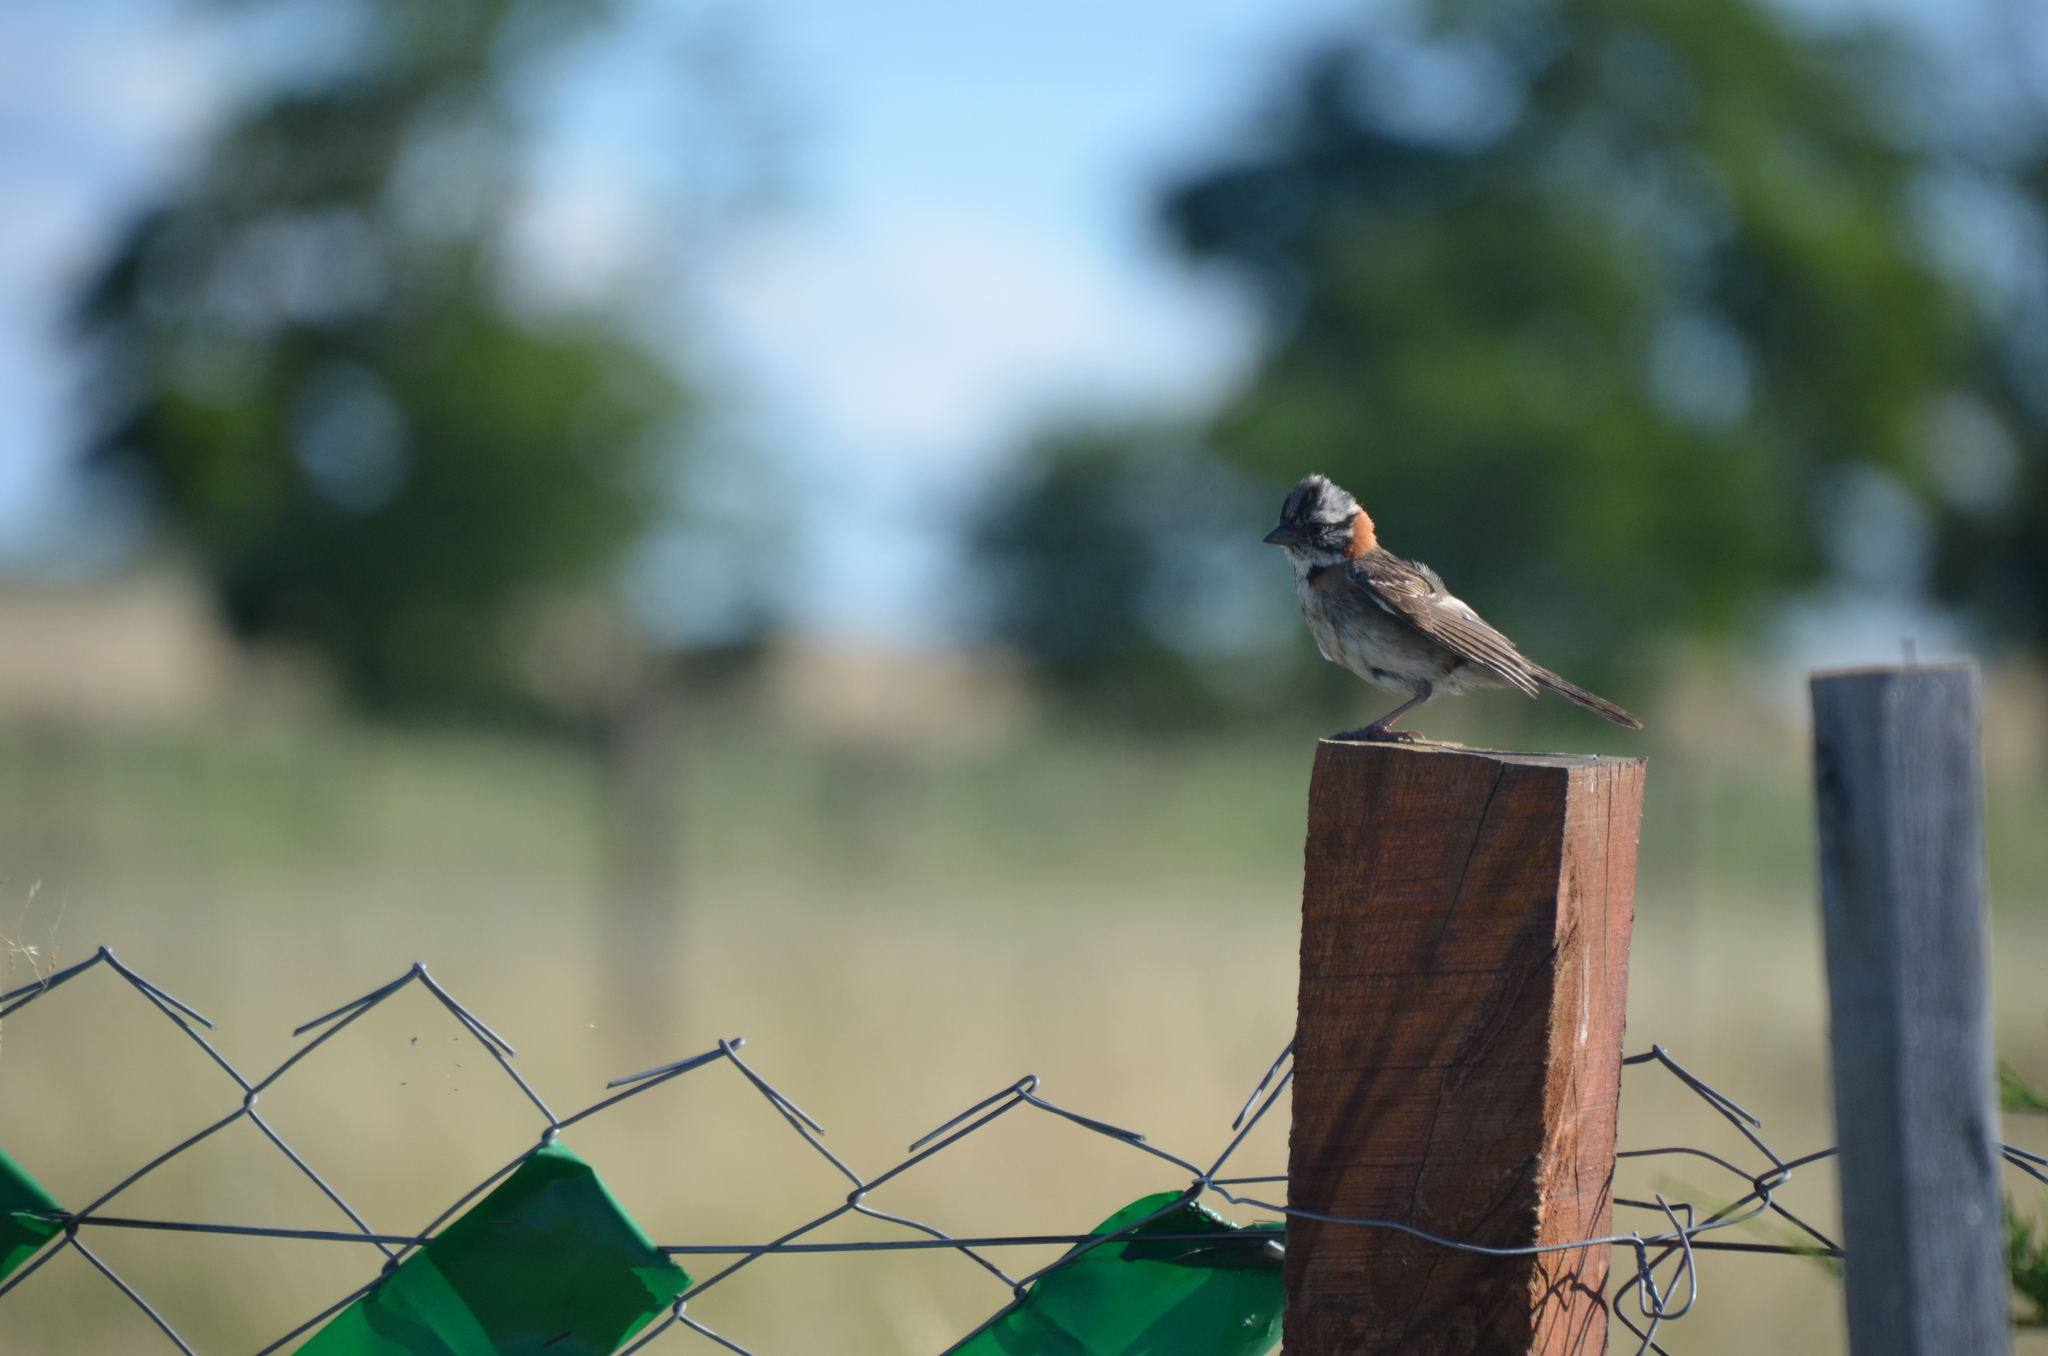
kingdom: Animalia
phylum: Chordata
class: Aves
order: Passeriformes
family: Passerellidae
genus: Zonotrichia
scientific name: Zonotrichia capensis
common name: Rufous-collared sparrow
